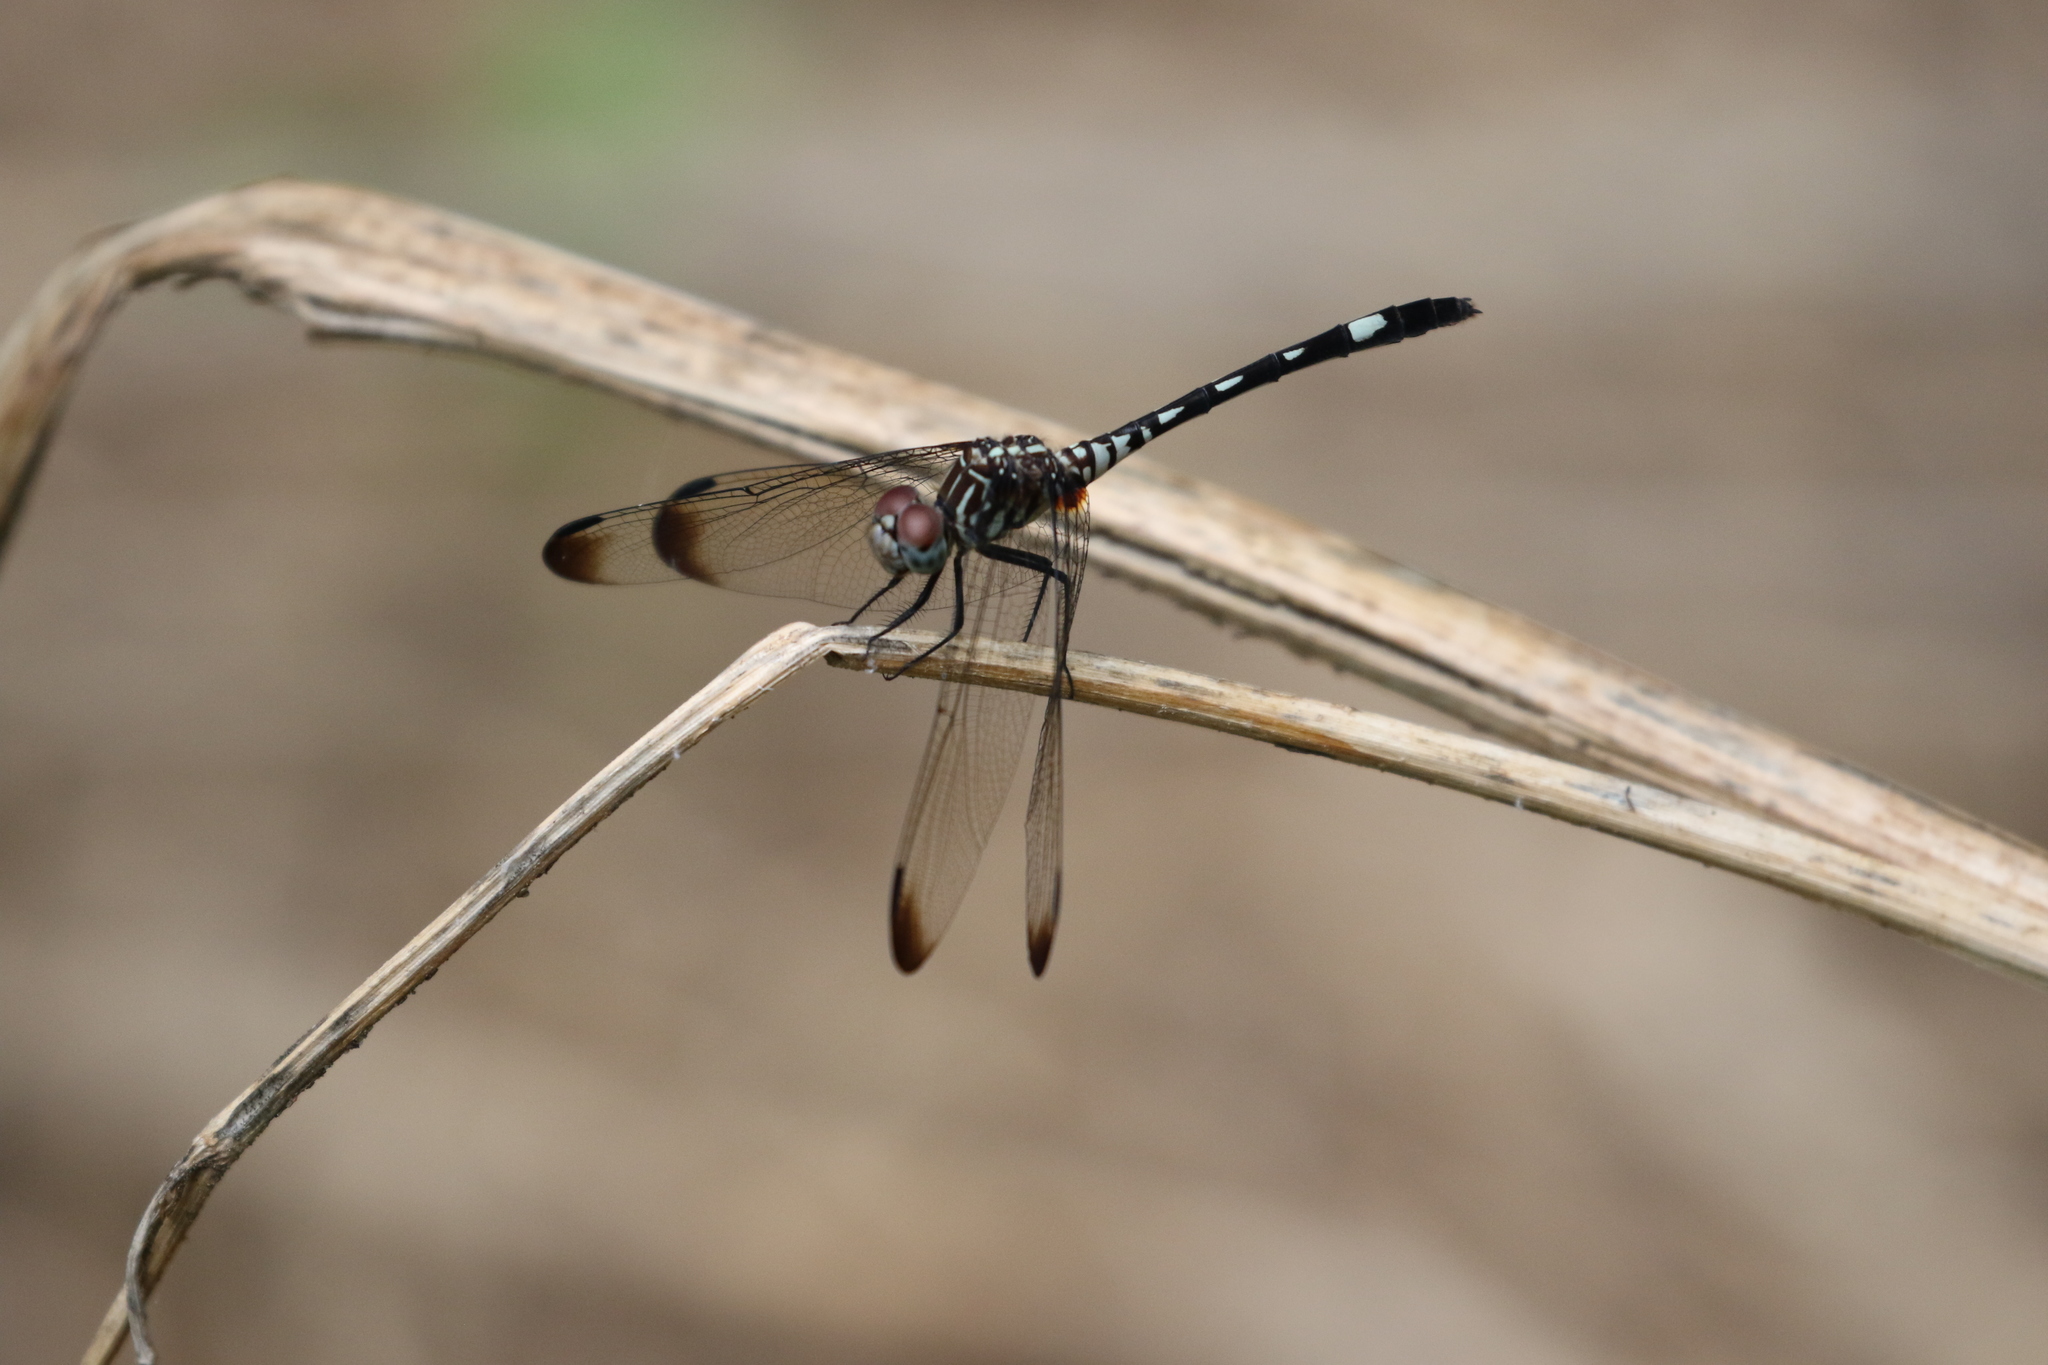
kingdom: Animalia
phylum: Arthropoda
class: Insecta
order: Odonata
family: Libellulidae
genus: Dythemis
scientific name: Dythemis velox
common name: Swift setwing
